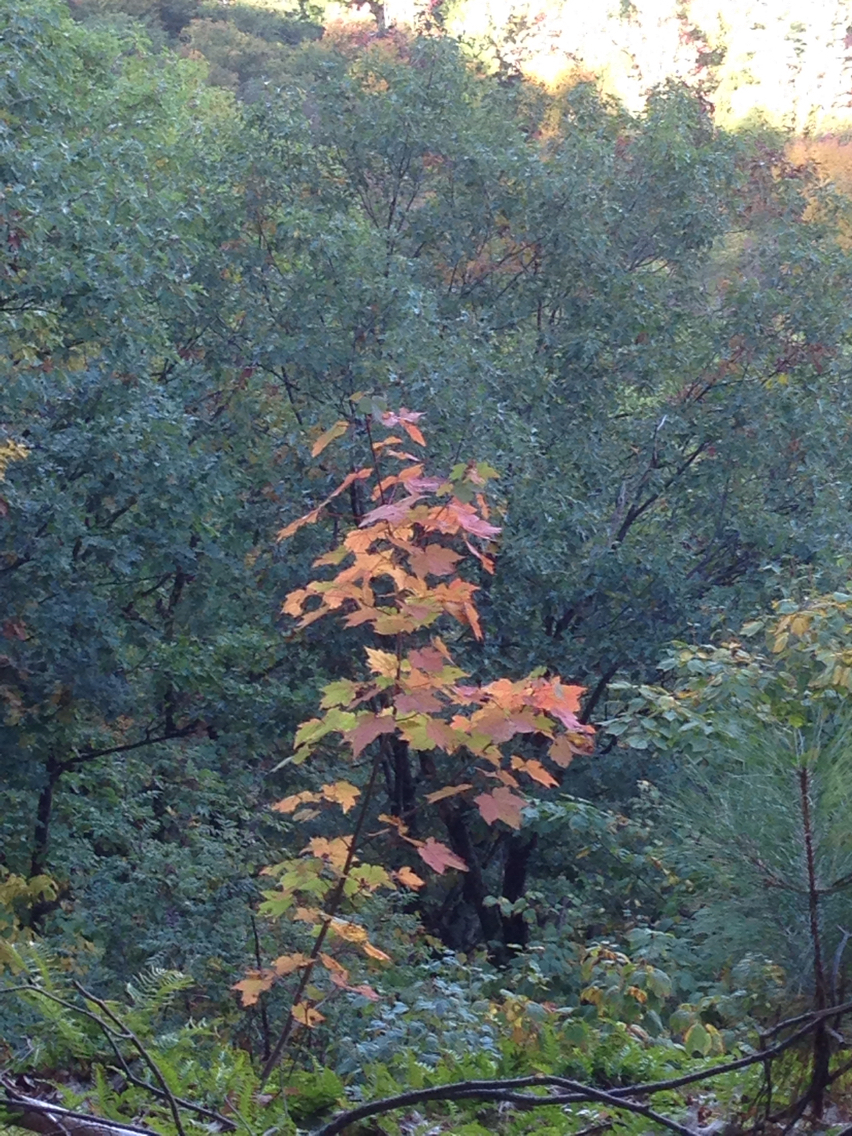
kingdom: Plantae
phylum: Tracheophyta
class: Magnoliopsida
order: Sapindales
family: Sapindaceae
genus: Acer
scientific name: Acer rubrum
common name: Red maple
